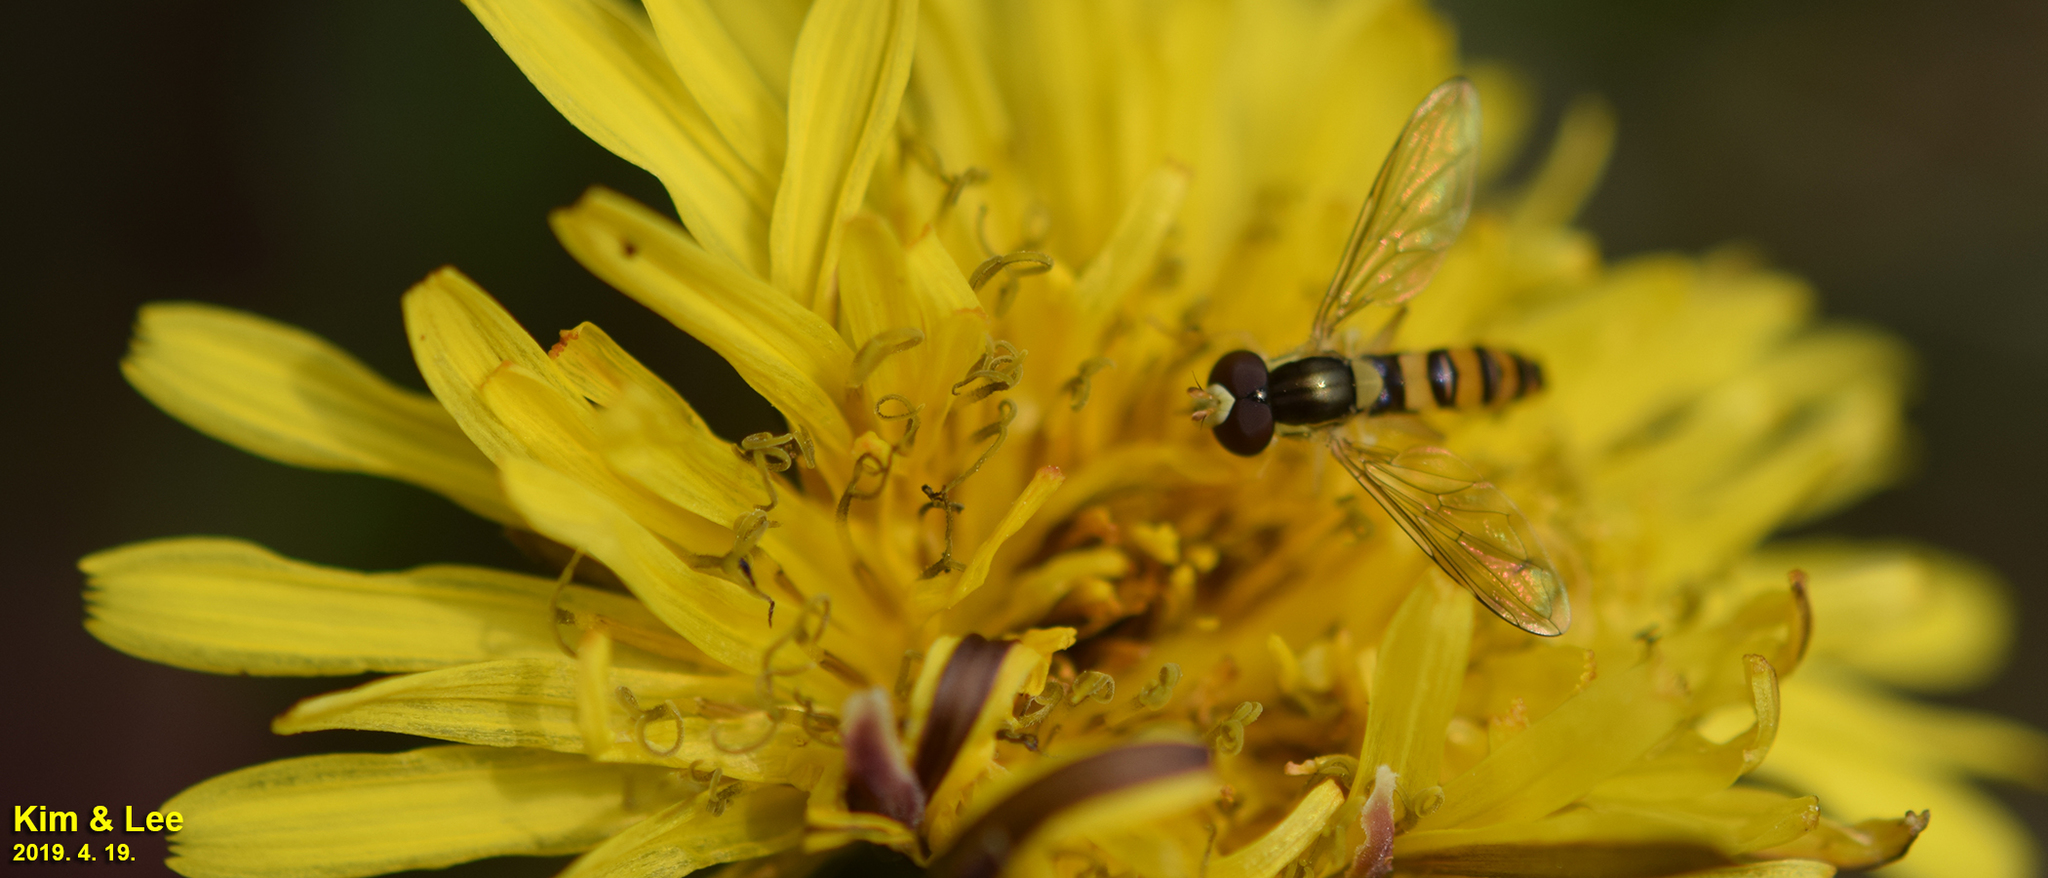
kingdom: Animalia
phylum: Arthropoda
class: Insecta
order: Diptera
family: Syrphidae
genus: Sphaerophoria
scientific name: Sphaerophoria scripta
